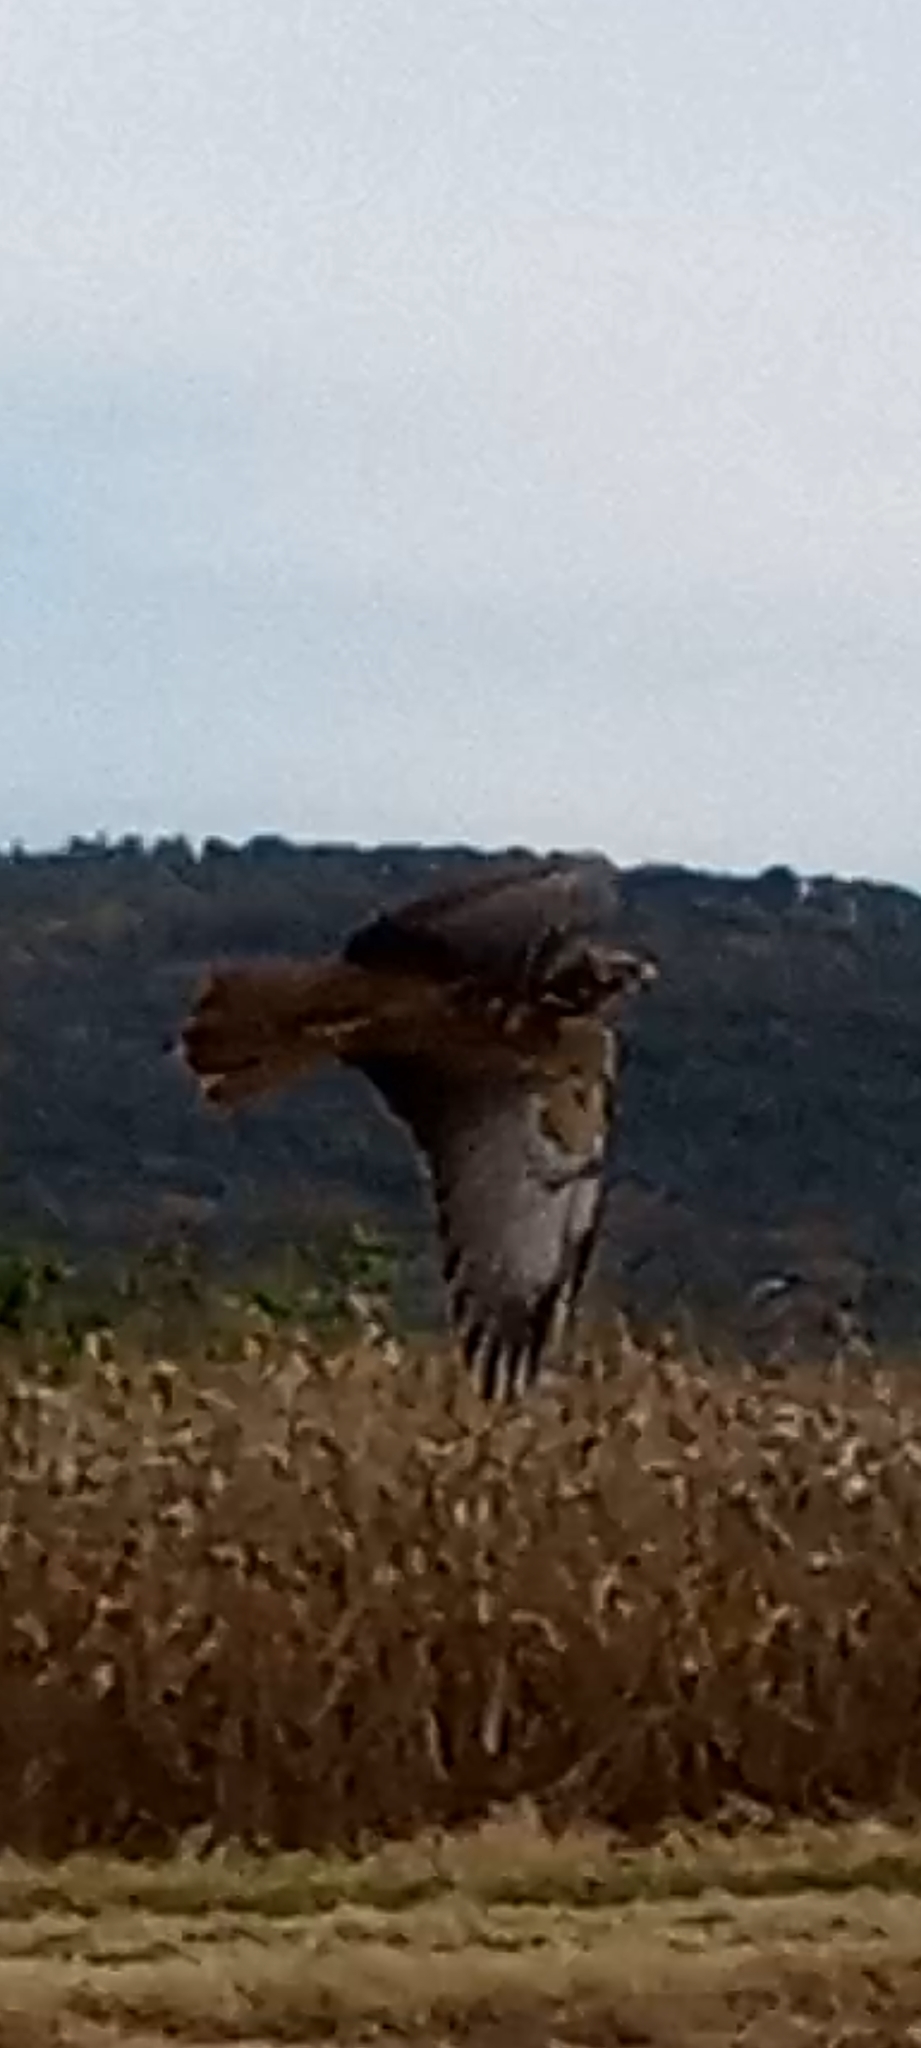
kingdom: Animalia
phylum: Chordata
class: Aves
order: Accipitriformes
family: Accipitridae
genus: Buteo
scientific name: Buteo jamaicensis
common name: Red-tailed hawk
